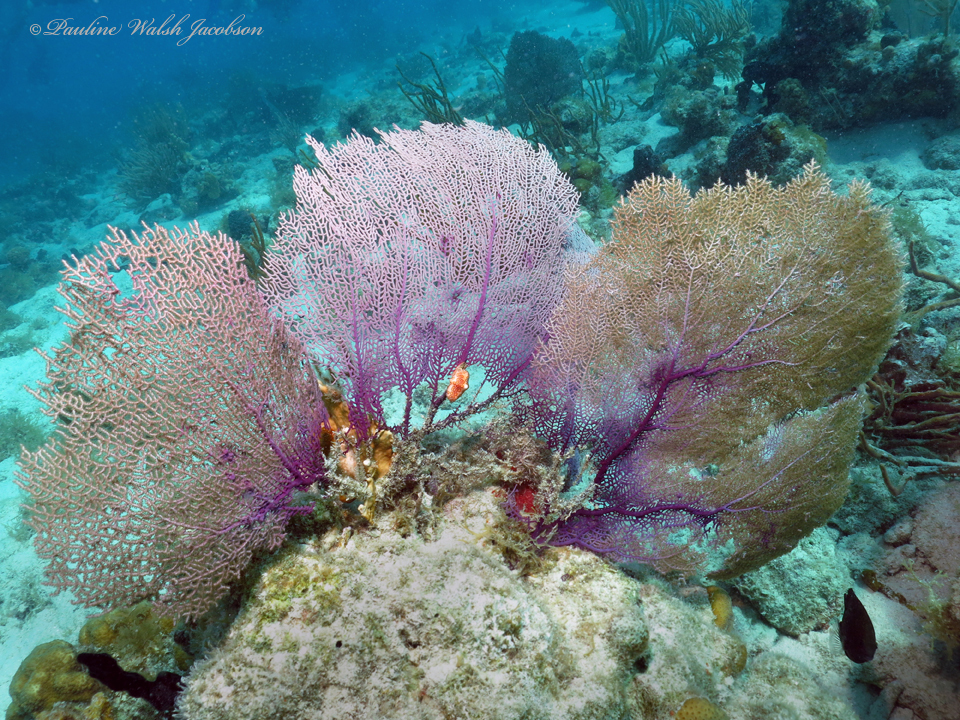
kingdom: Animalia
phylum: Cnidaria
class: Anthozoa
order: Malacalcyonacea
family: Gorgoniidae
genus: Gorgonia
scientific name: Gorgonia ventalina
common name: Common sea fan
